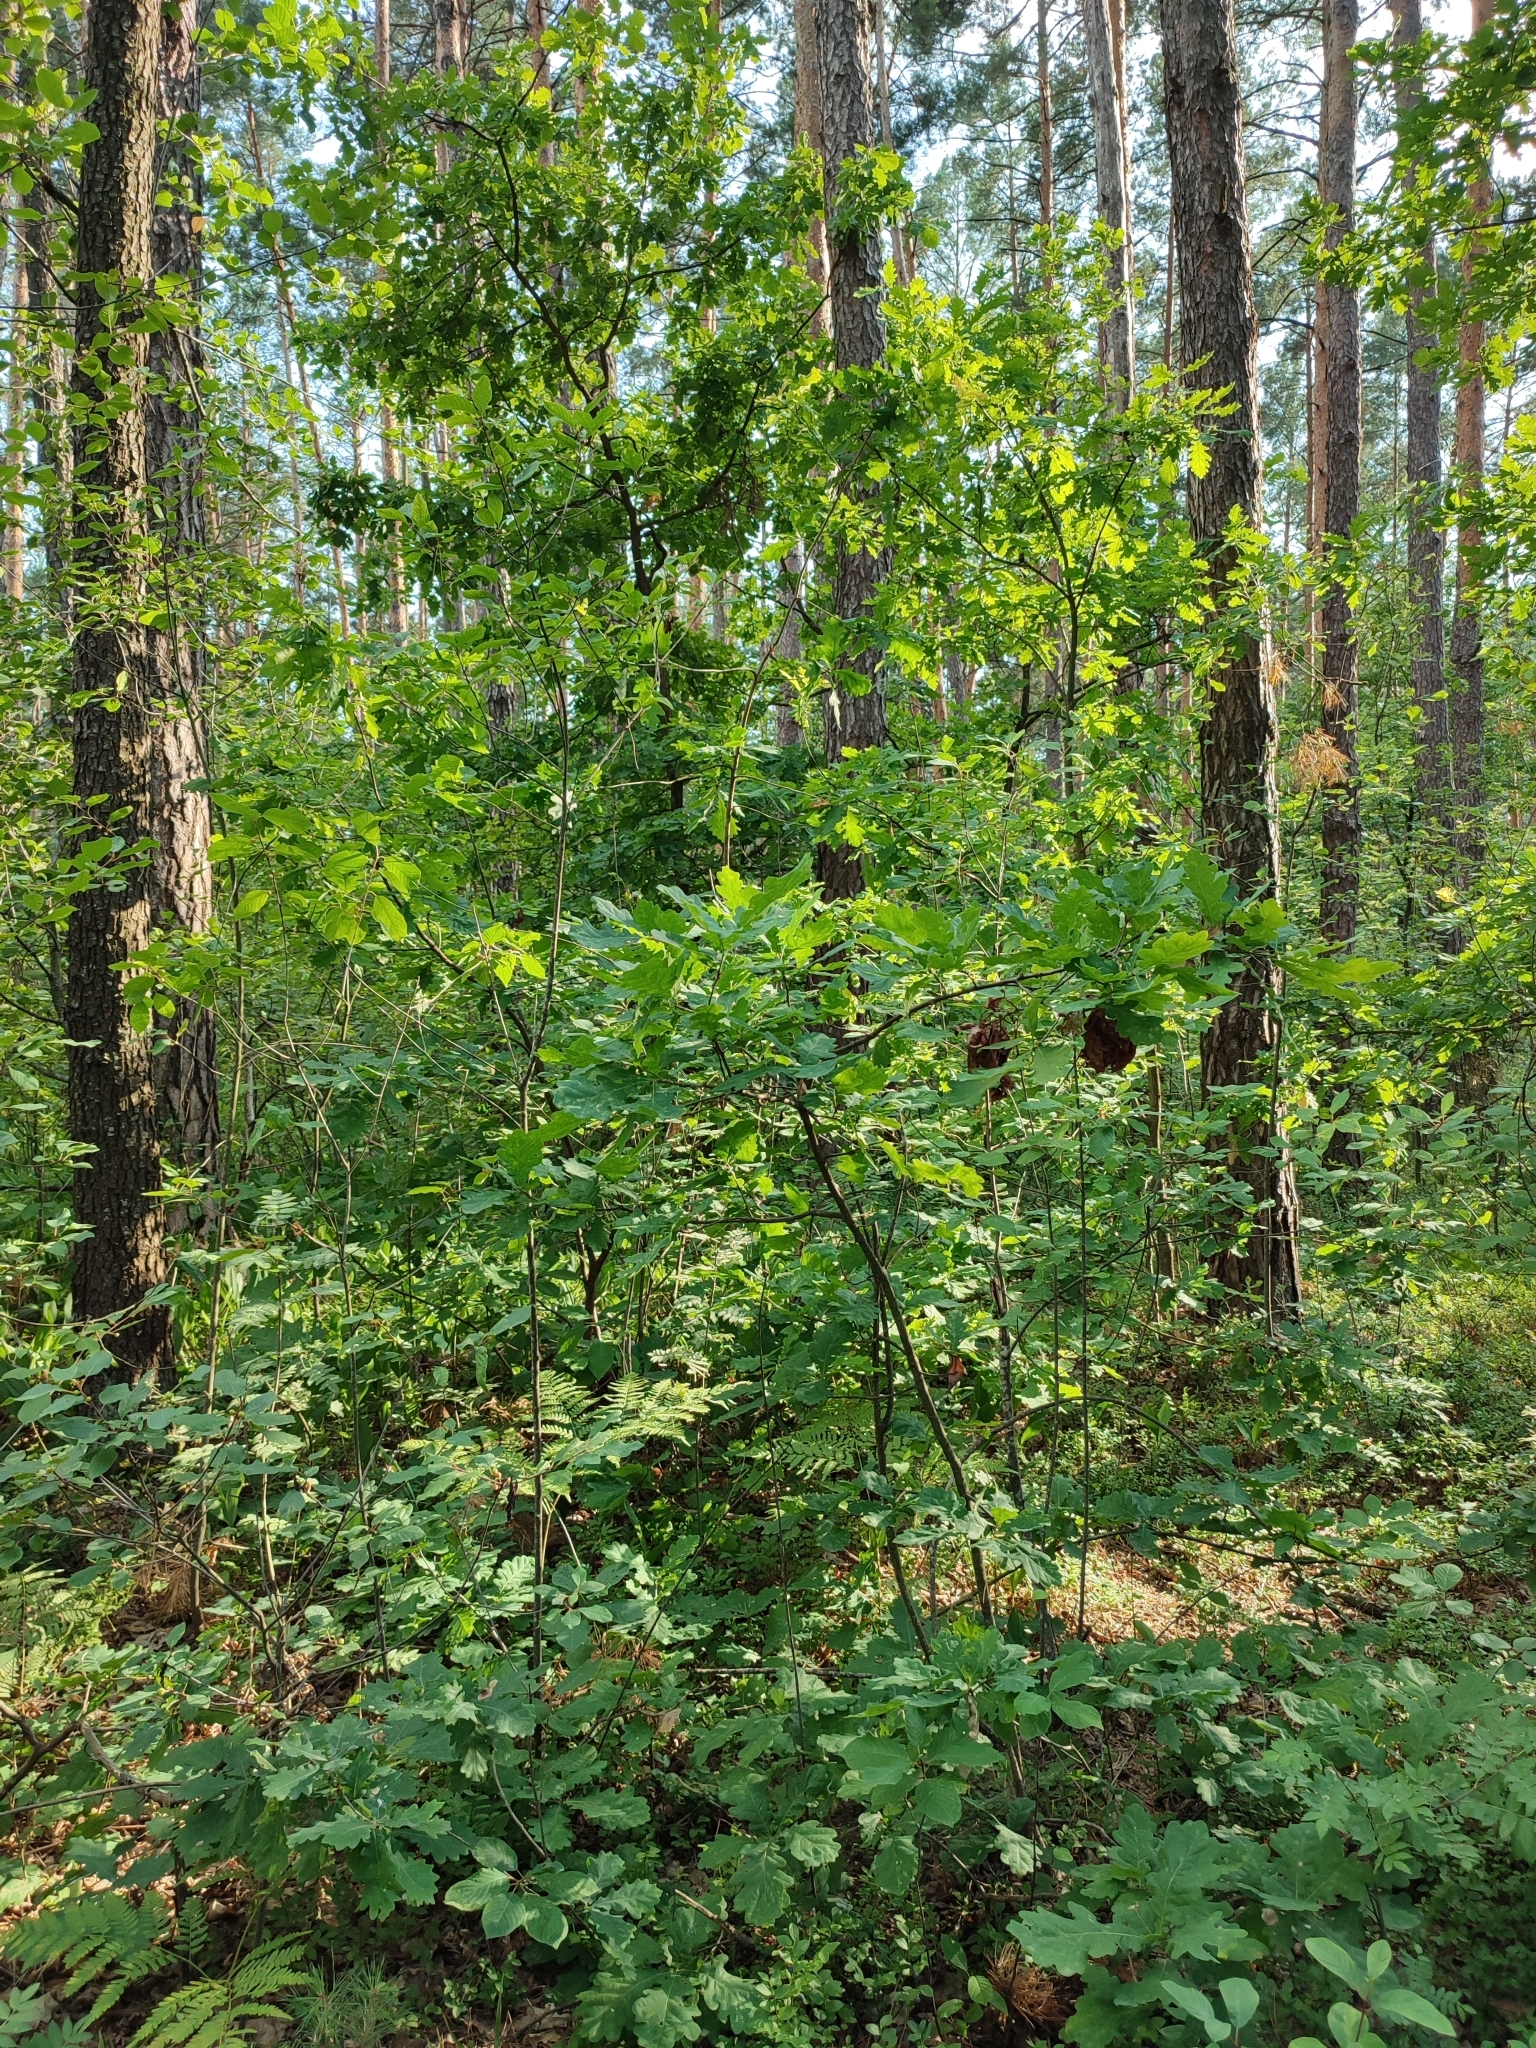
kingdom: Plantae
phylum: Tracheophyta
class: Magnoliopsida
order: Fagales
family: Fagaceae
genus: Quercus
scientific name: Quercus robur
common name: Pedunculate oak
